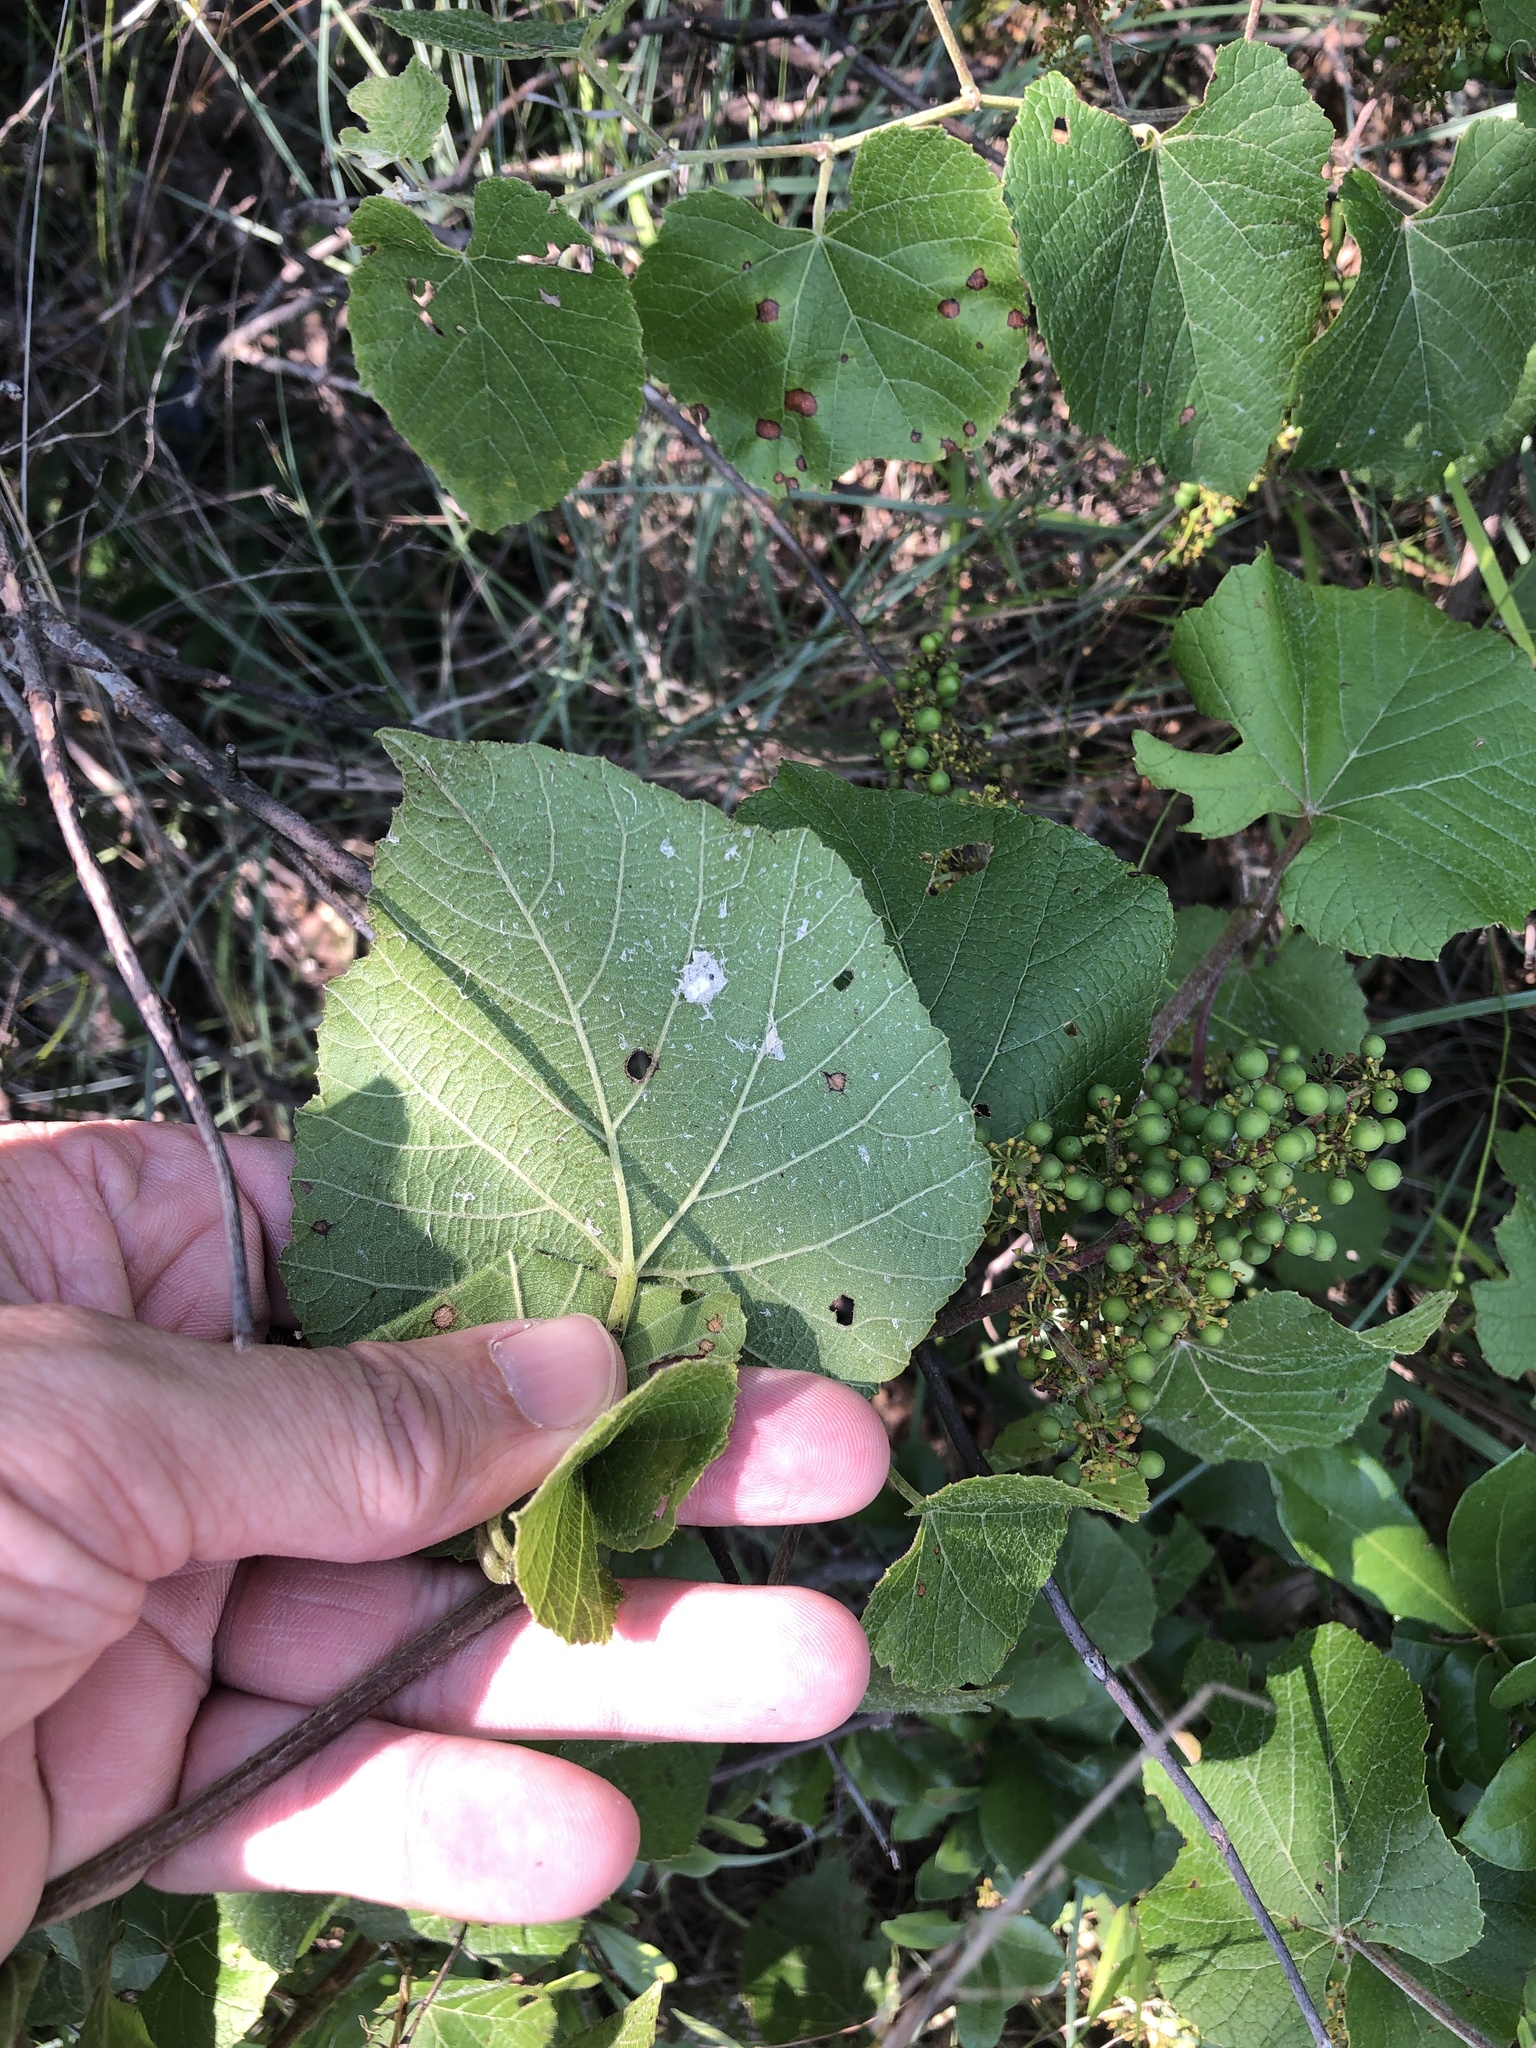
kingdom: Plantae
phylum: Tracheophyta
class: Magnoliopsida
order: Vitales
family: Vitaceae
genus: Vitis
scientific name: Vitis cinerea
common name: Ashy grape
